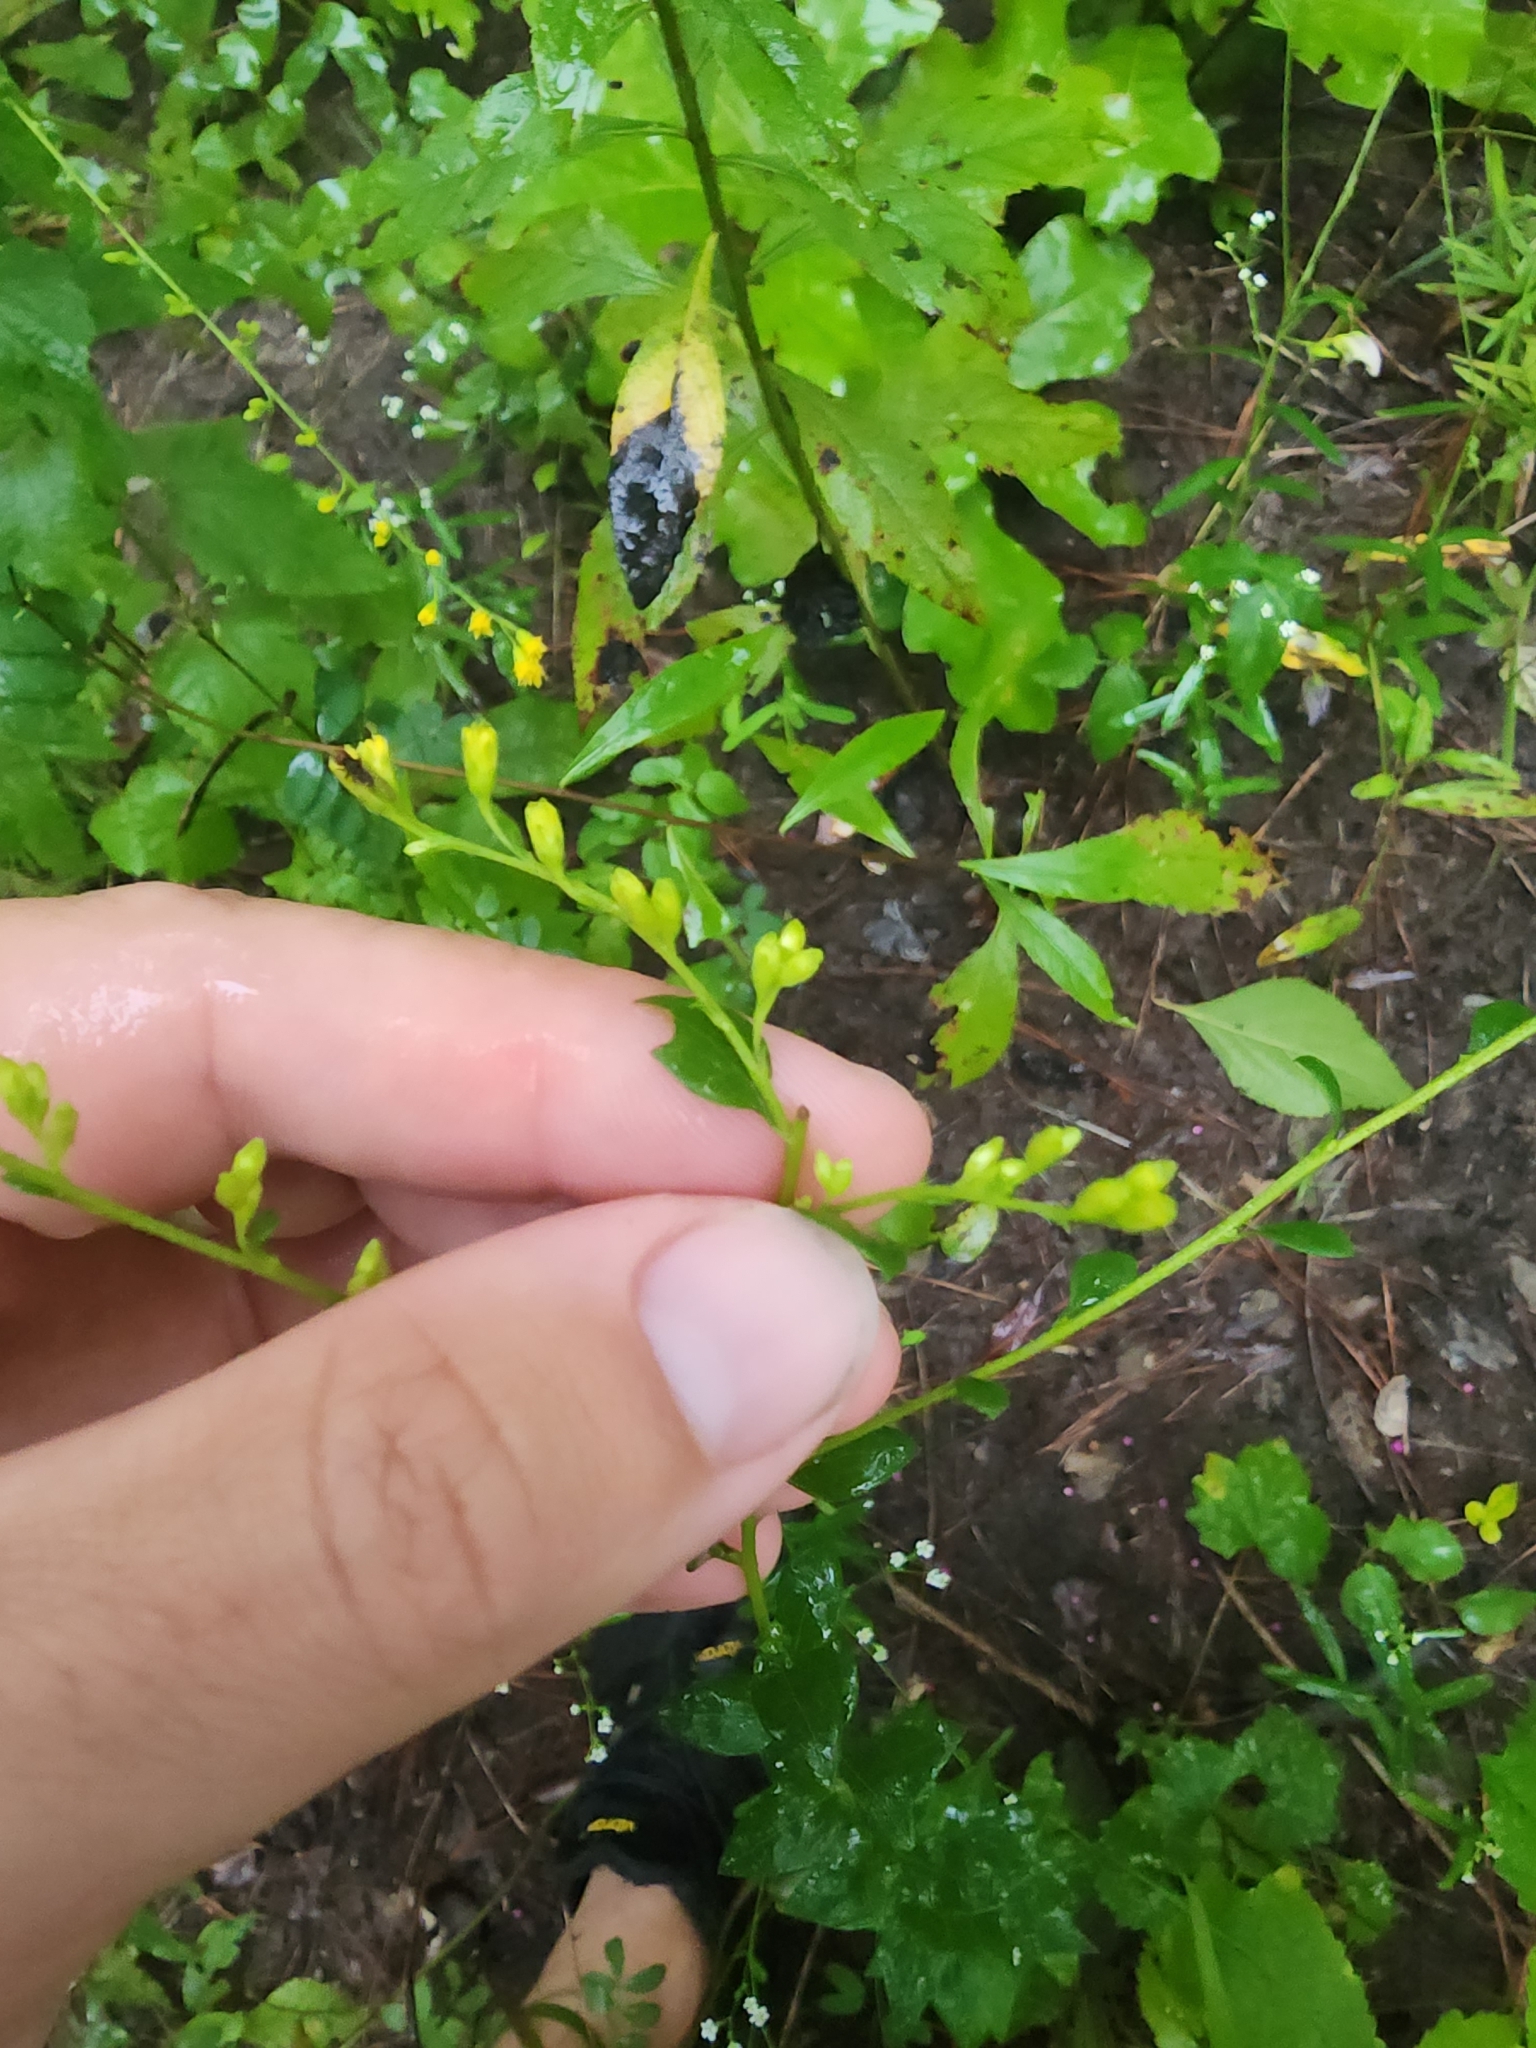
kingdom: Plantae
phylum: Tracheophyta
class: Magnoliopsida
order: Asterales
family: Asteraceae
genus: Solidago
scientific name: Solidago brachyphylla
